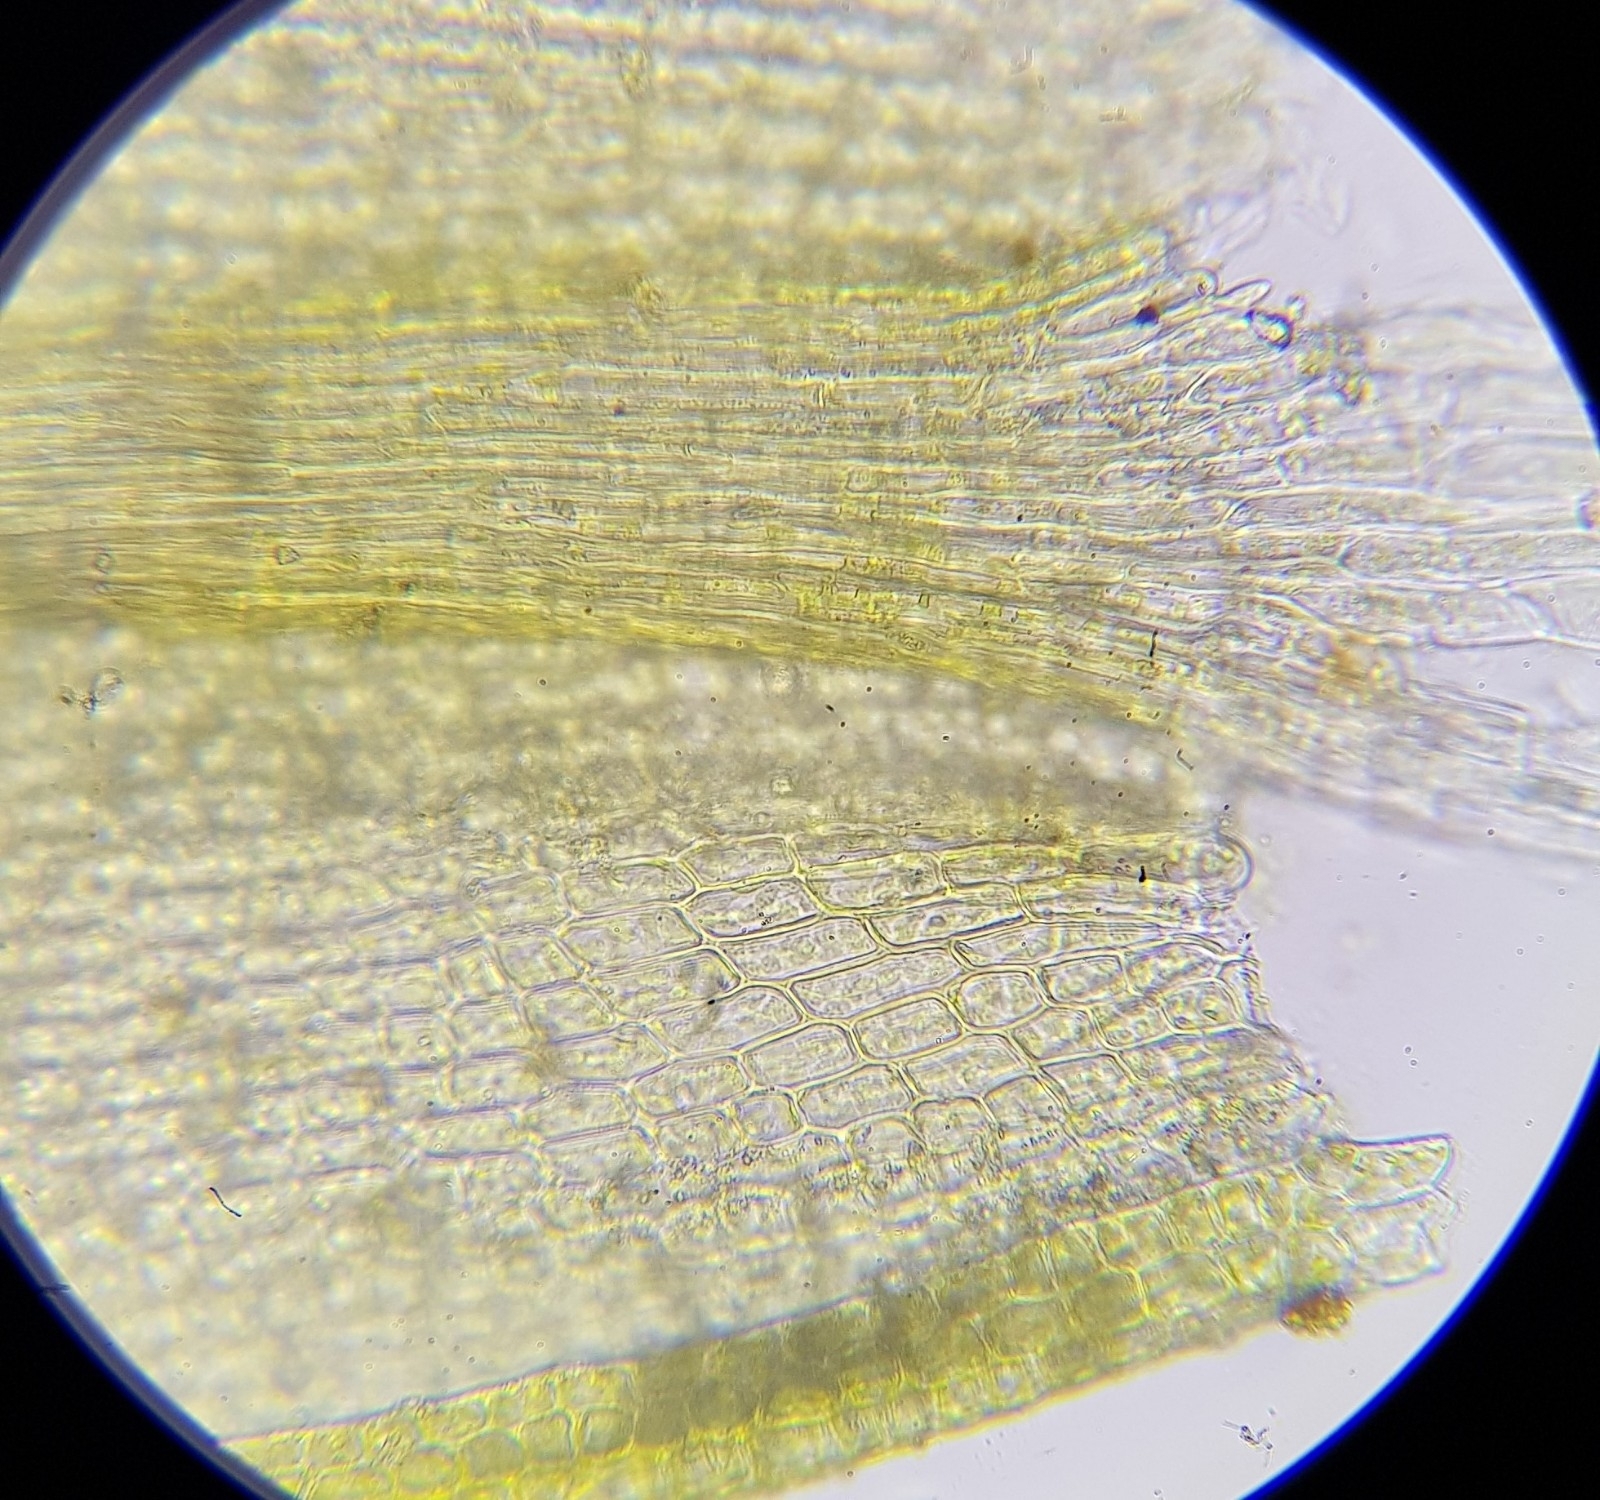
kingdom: Plantae
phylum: Bryophyta
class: Bryopsida
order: Pottiales
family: Pottiaceae
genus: Barbula
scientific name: Barbula unguiculata
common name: Prickly beard moss
